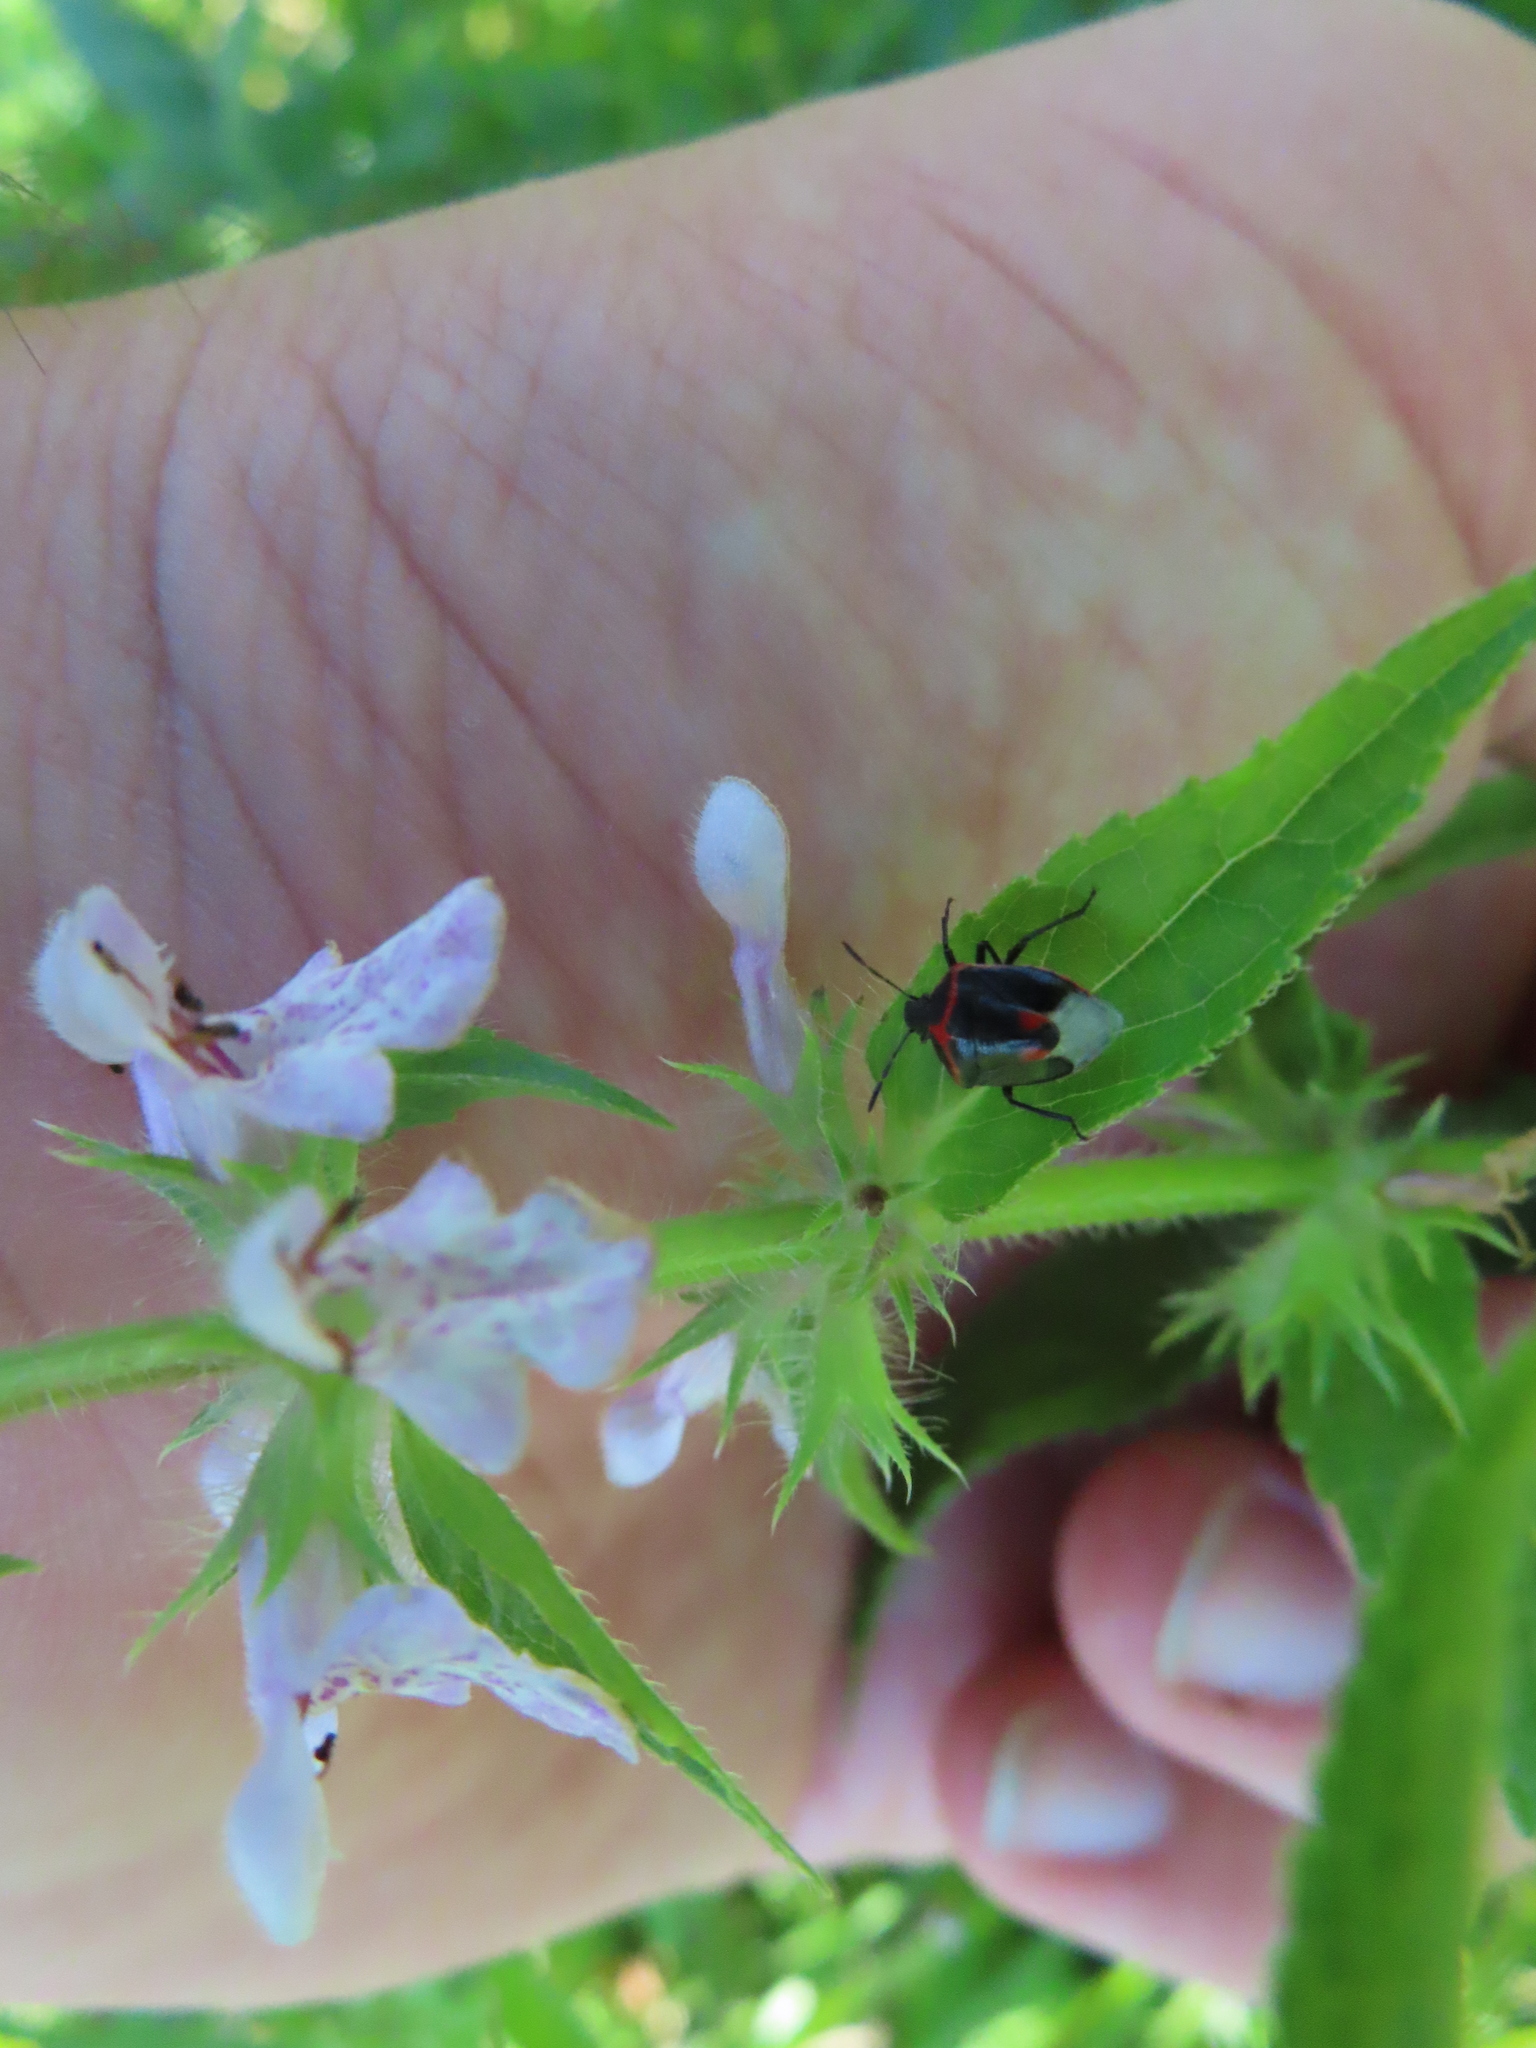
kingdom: Animalia
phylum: Arthropoda
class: Insecta
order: Hemiptera
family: Pentatomidae
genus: Cosmopepla
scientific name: Cosmopepla lintneriana
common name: Twice-stabbed stink bug
